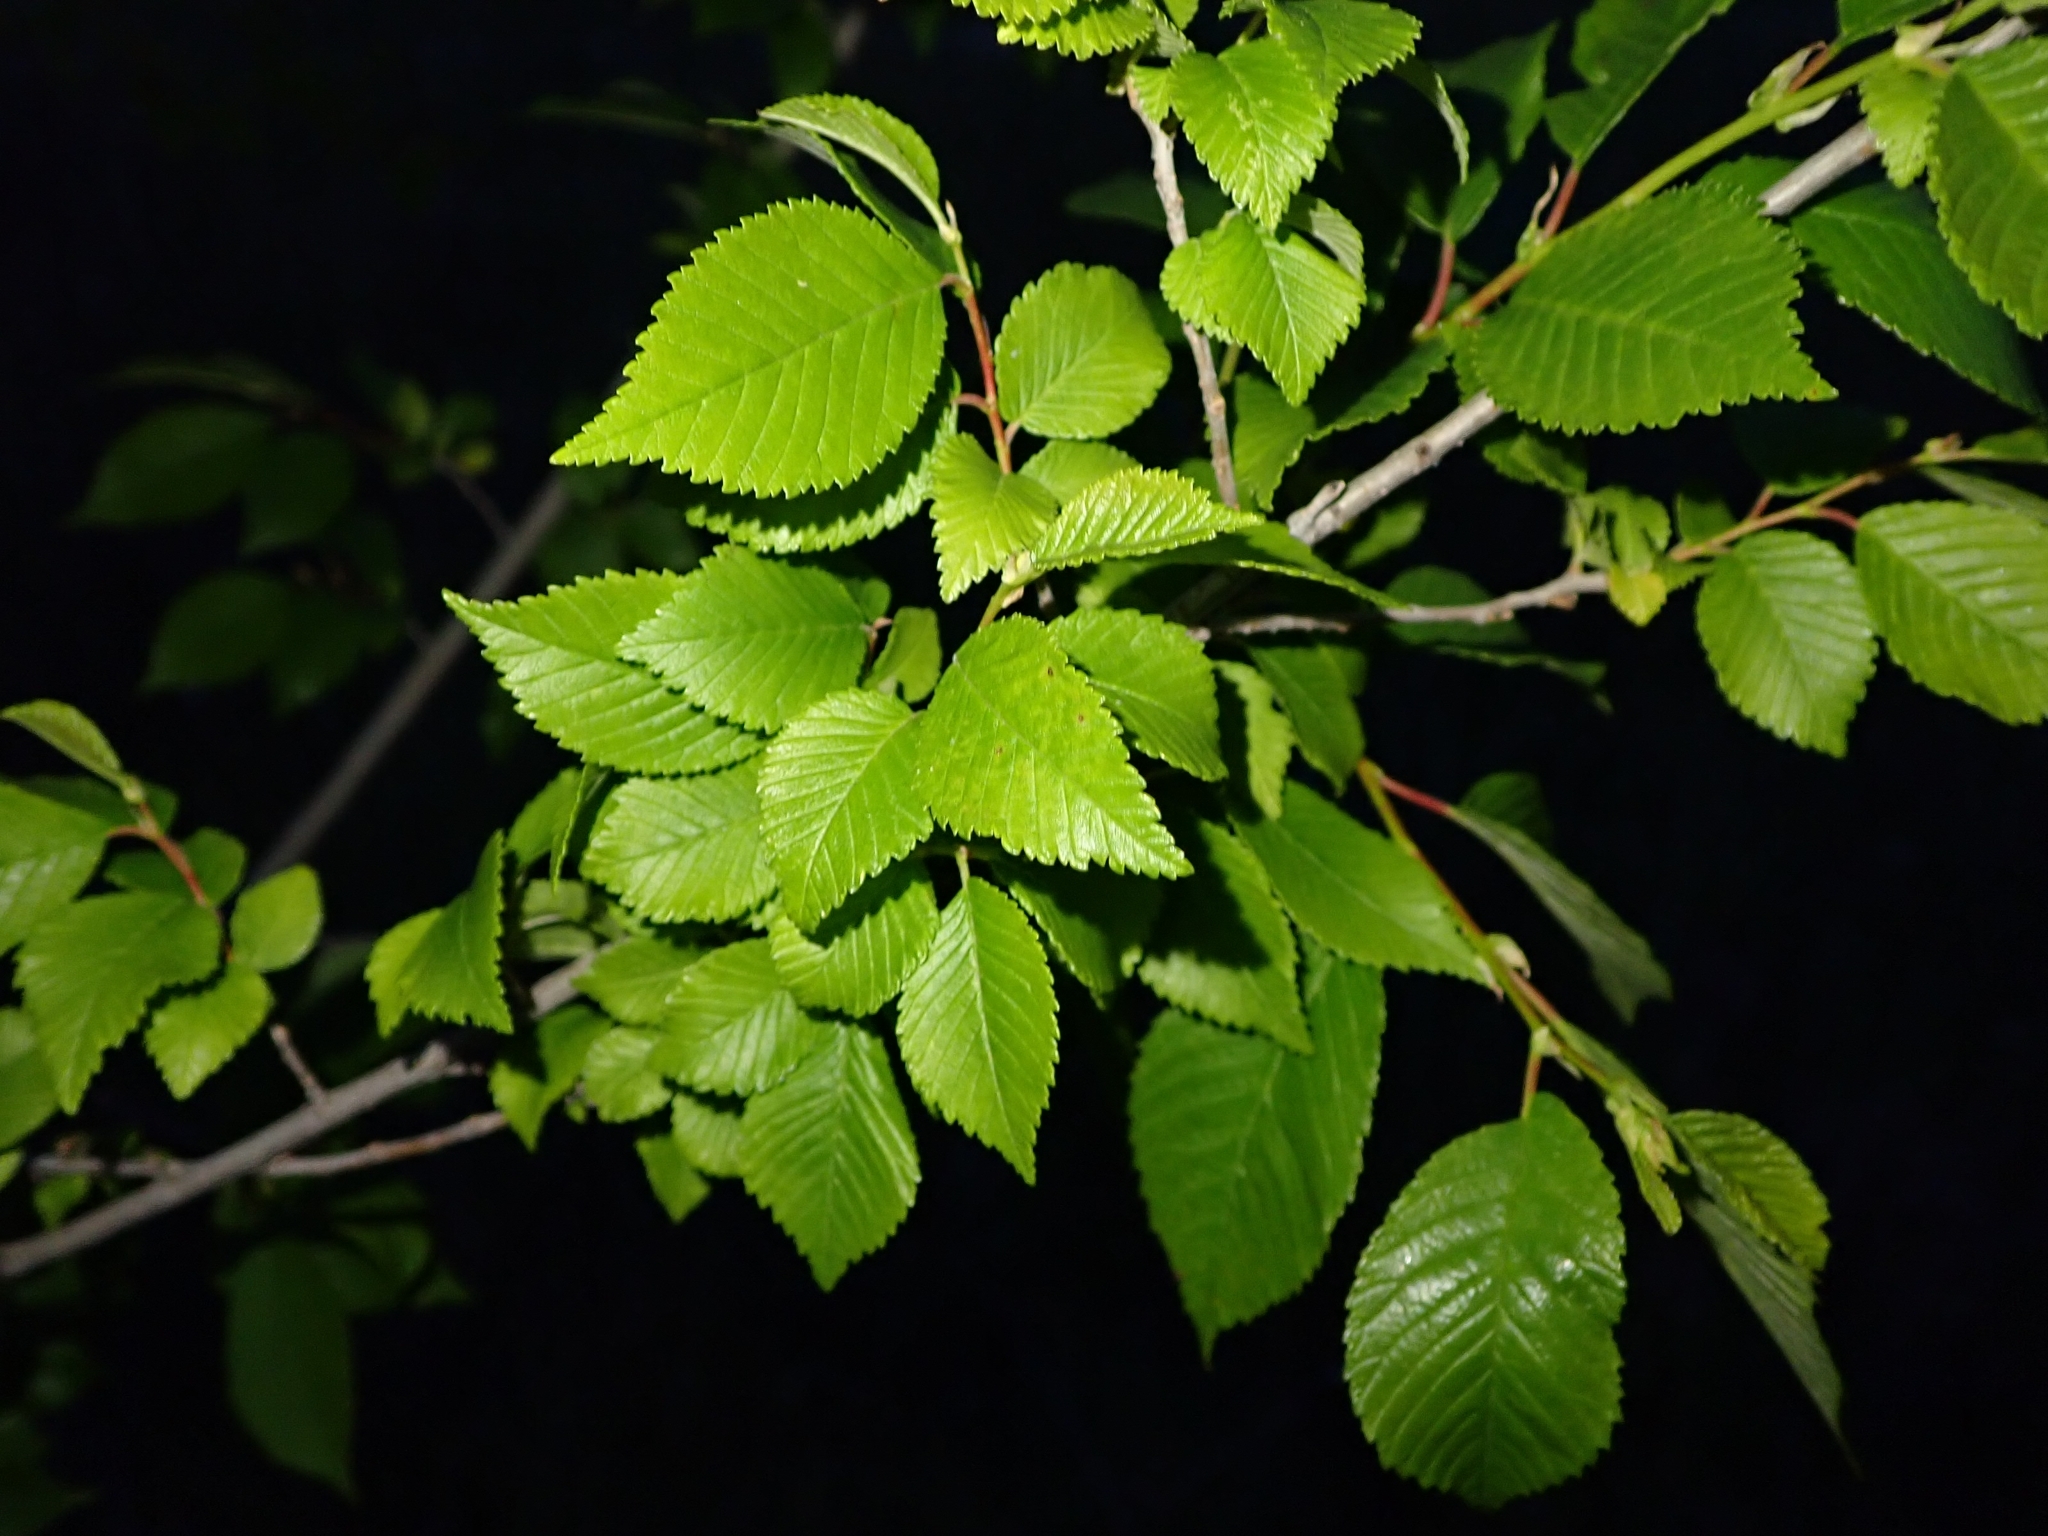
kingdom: Plantae
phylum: Tracheophyta
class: Magnoliopsida
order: Rosales
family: Ulmaceae
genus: Ulmus
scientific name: Ulmus pumila
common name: Siberian elm
